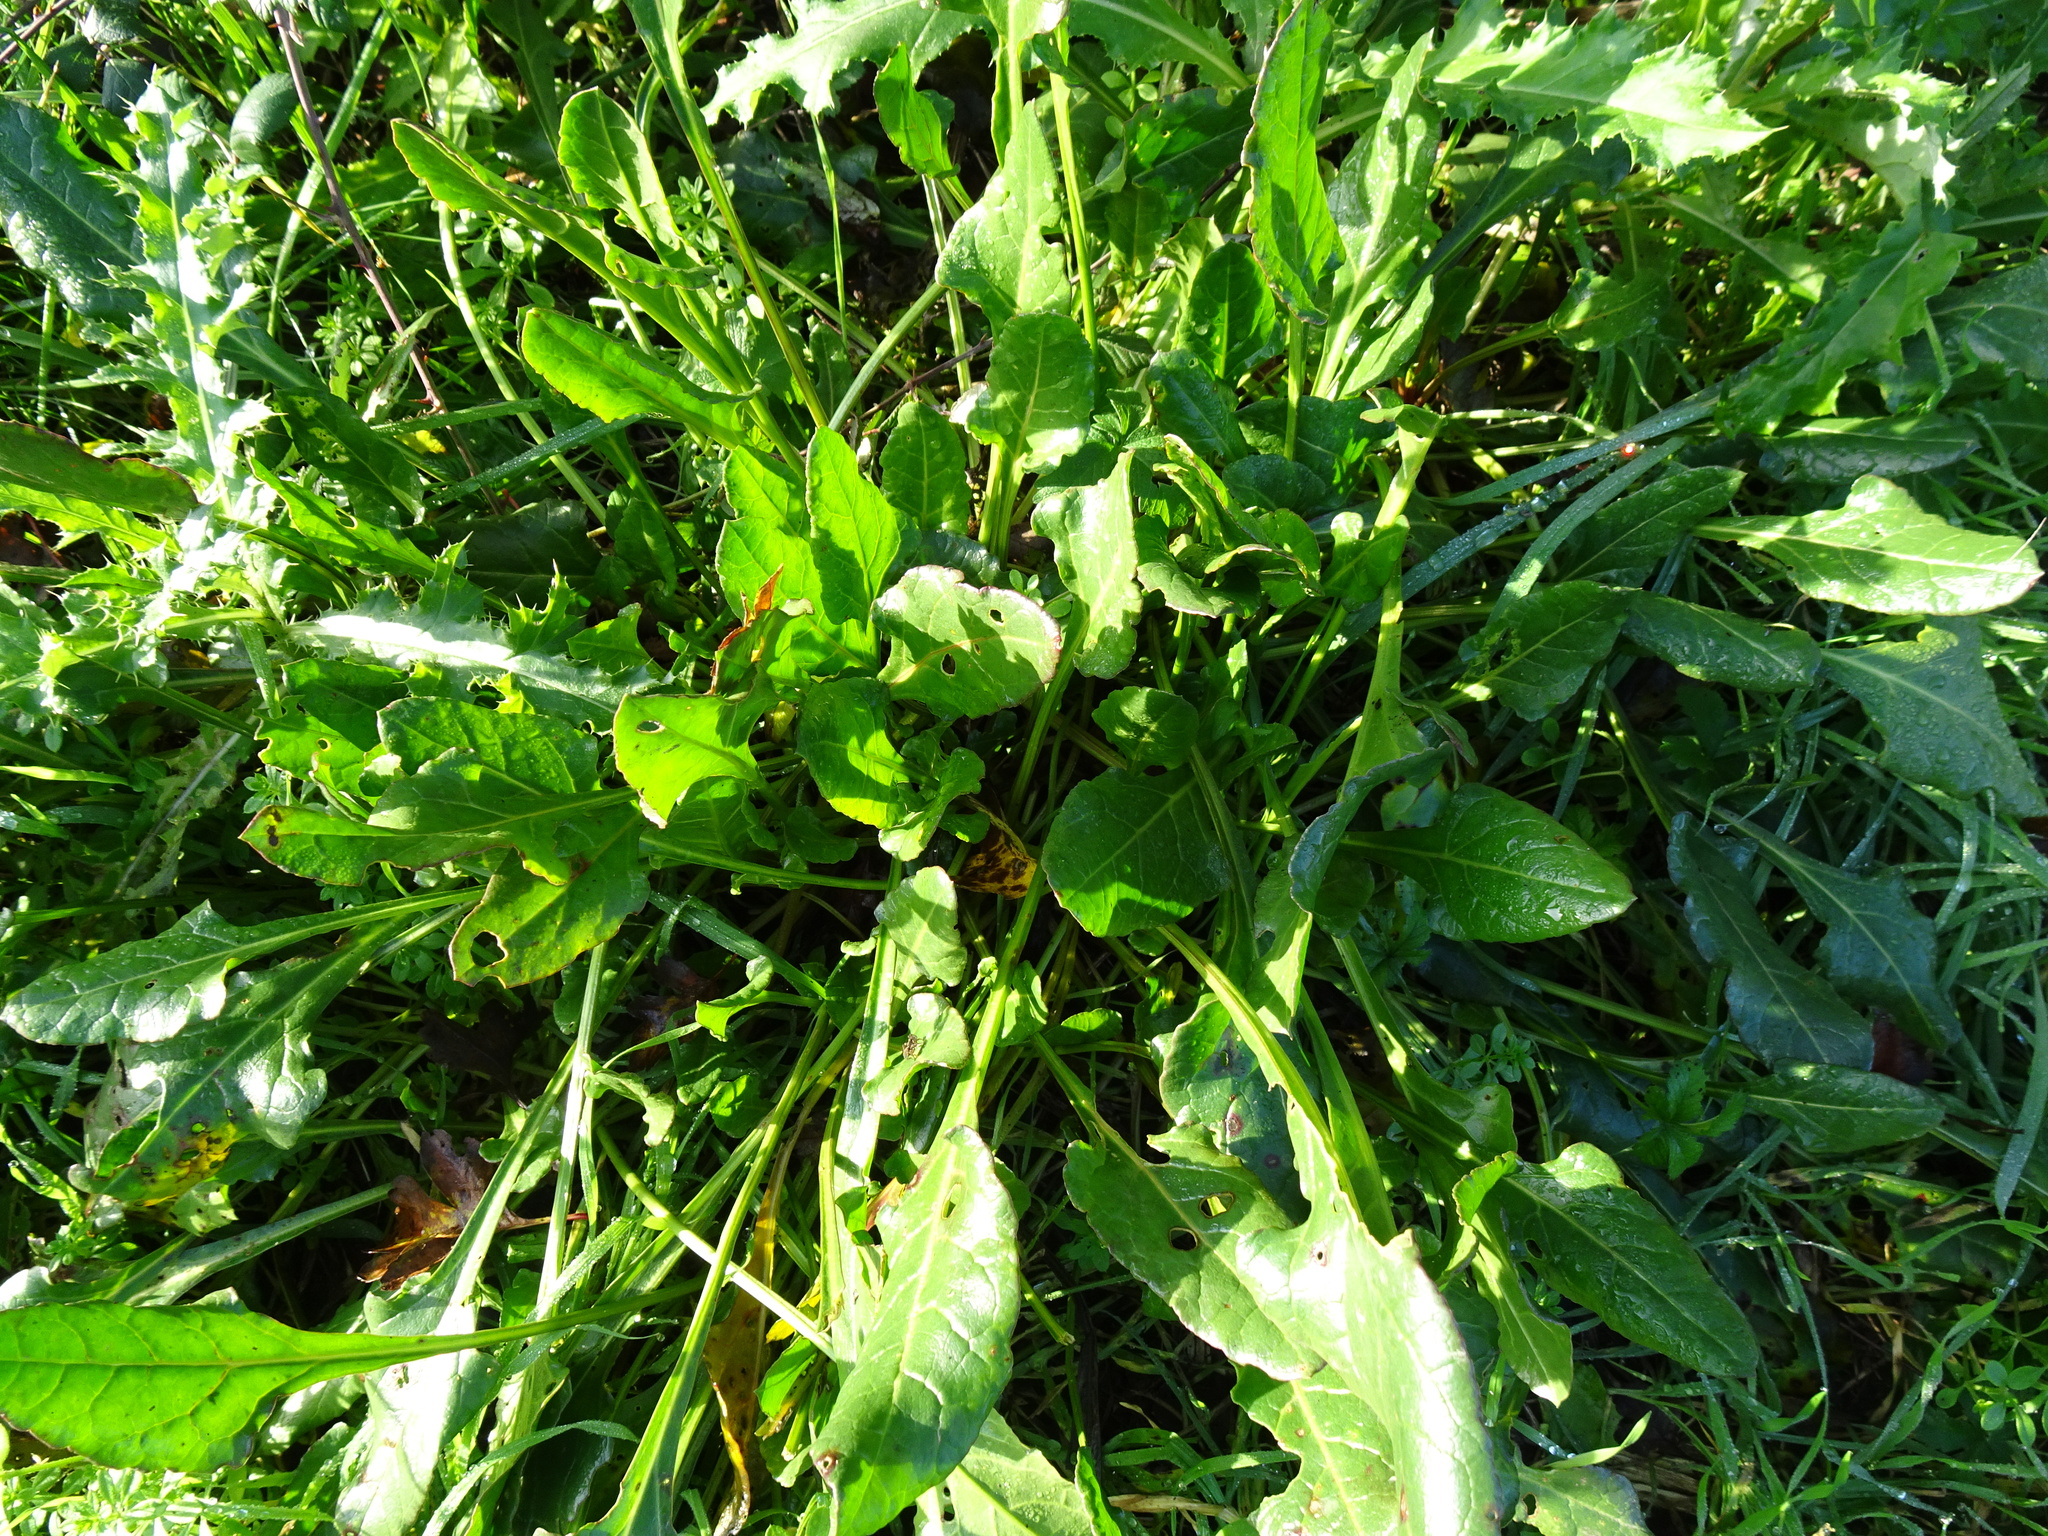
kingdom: Plantae
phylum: Tracheophyta
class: Magnoliopsida
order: Caryophyllales
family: Amaranthaceae
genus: Beta
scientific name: Beta vulgaris
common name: Beet
